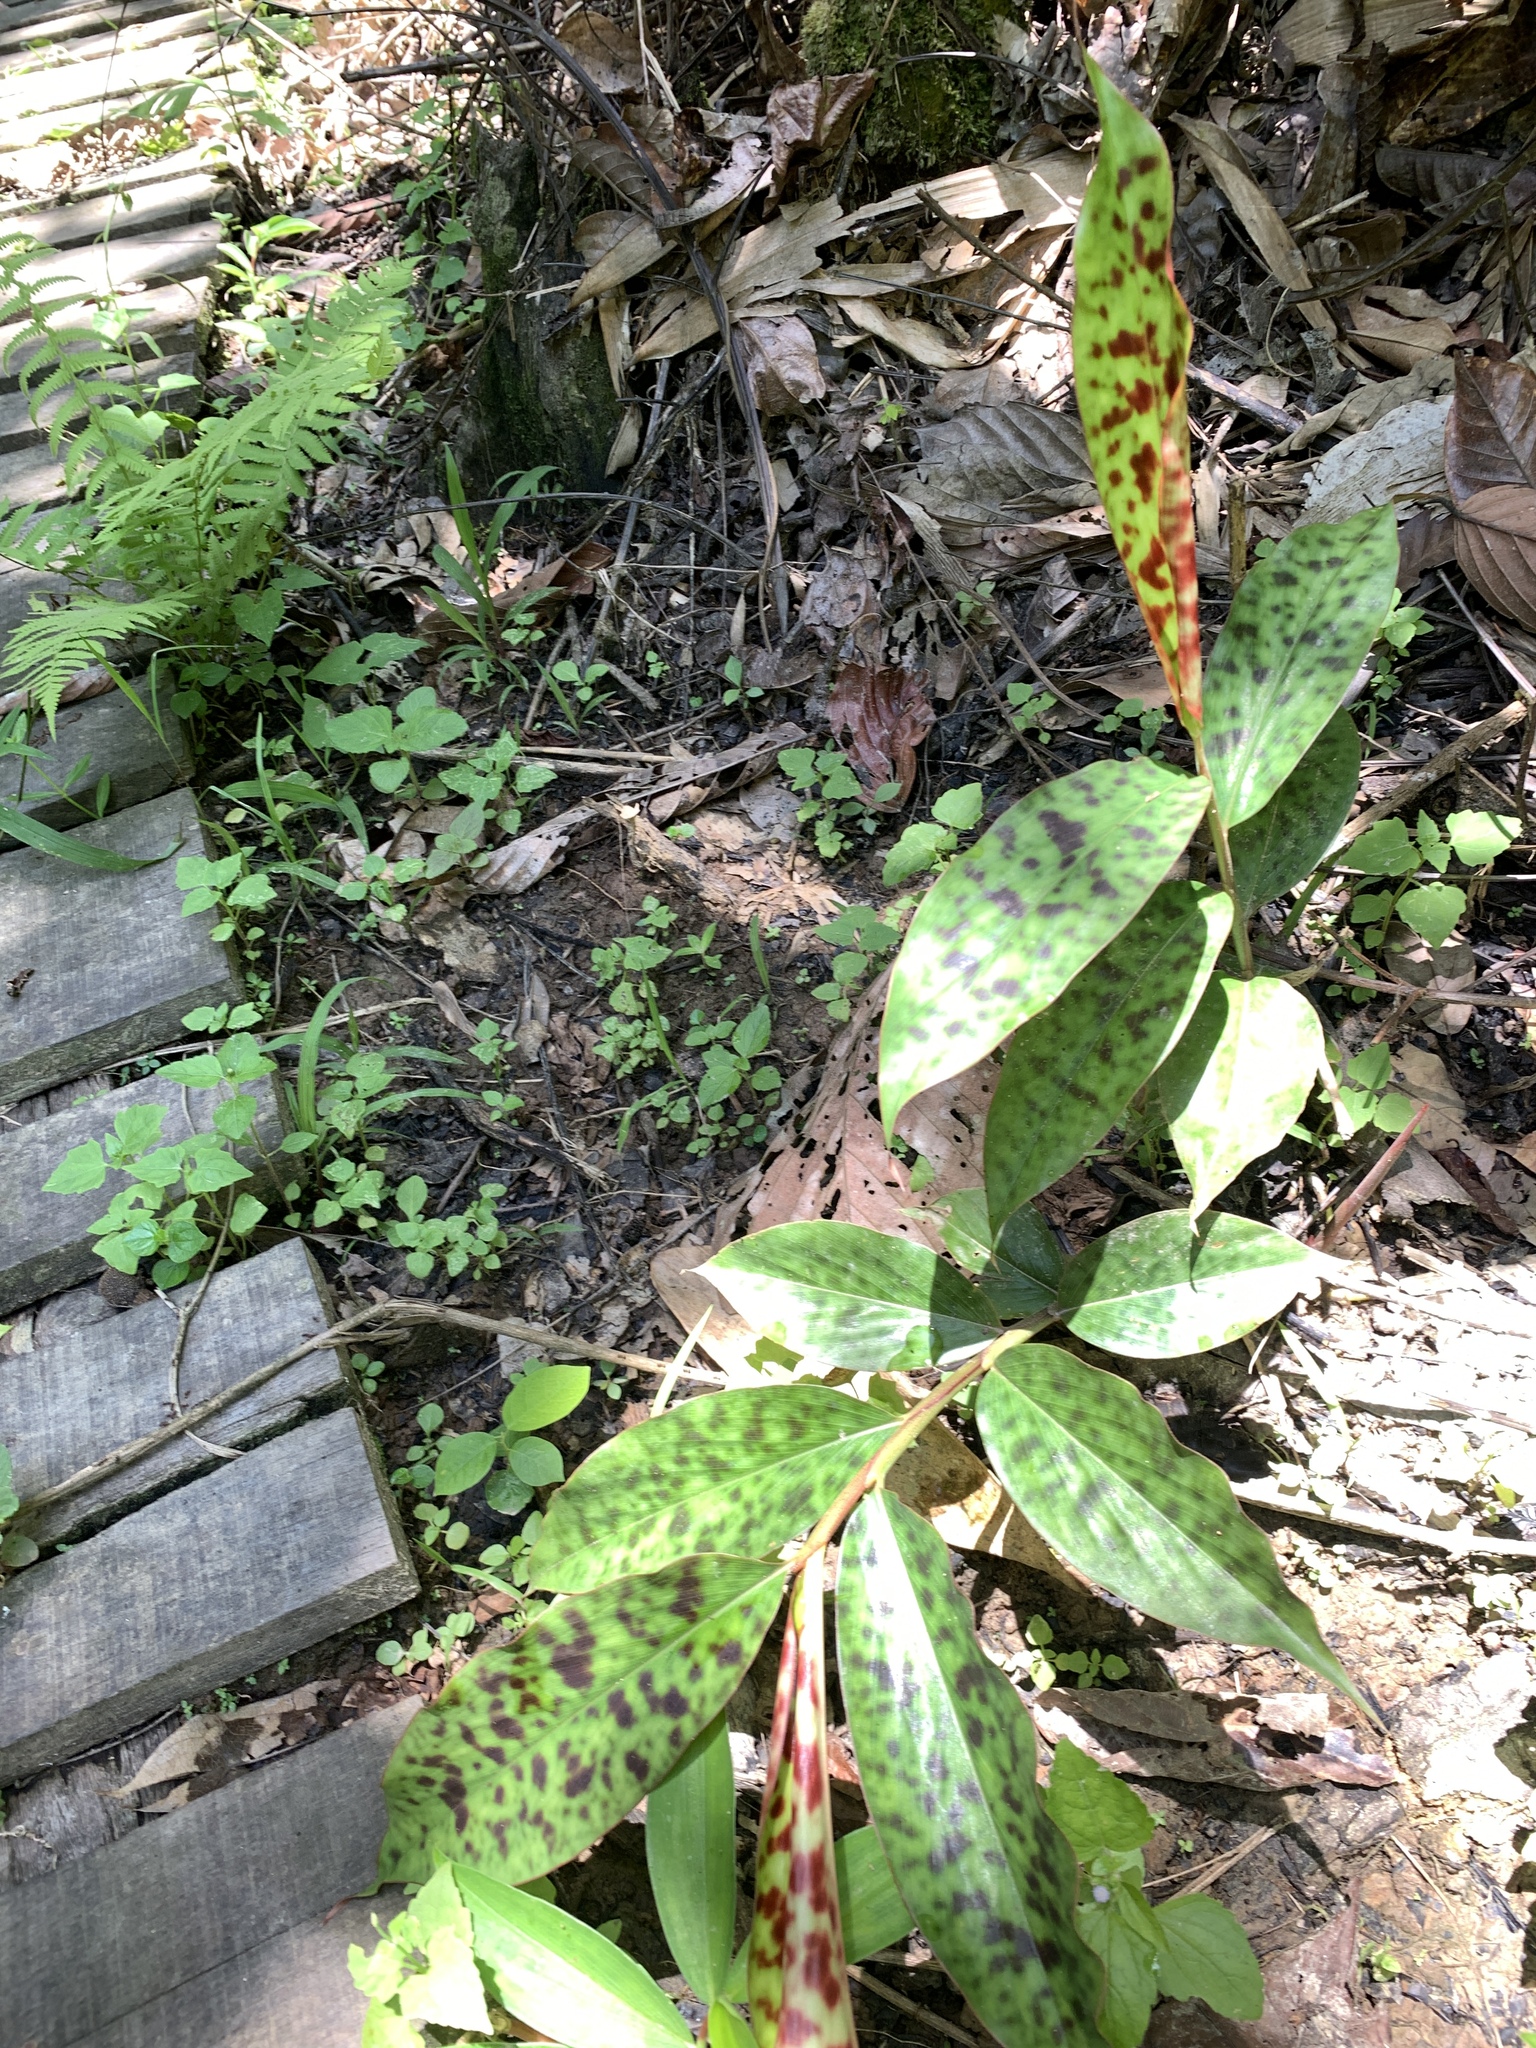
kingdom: Plantae
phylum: Tracheophyta
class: Liliopsida
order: Zingiberales
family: Zingiberaceae
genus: Etlingera
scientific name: Etlingera brevilabrum
